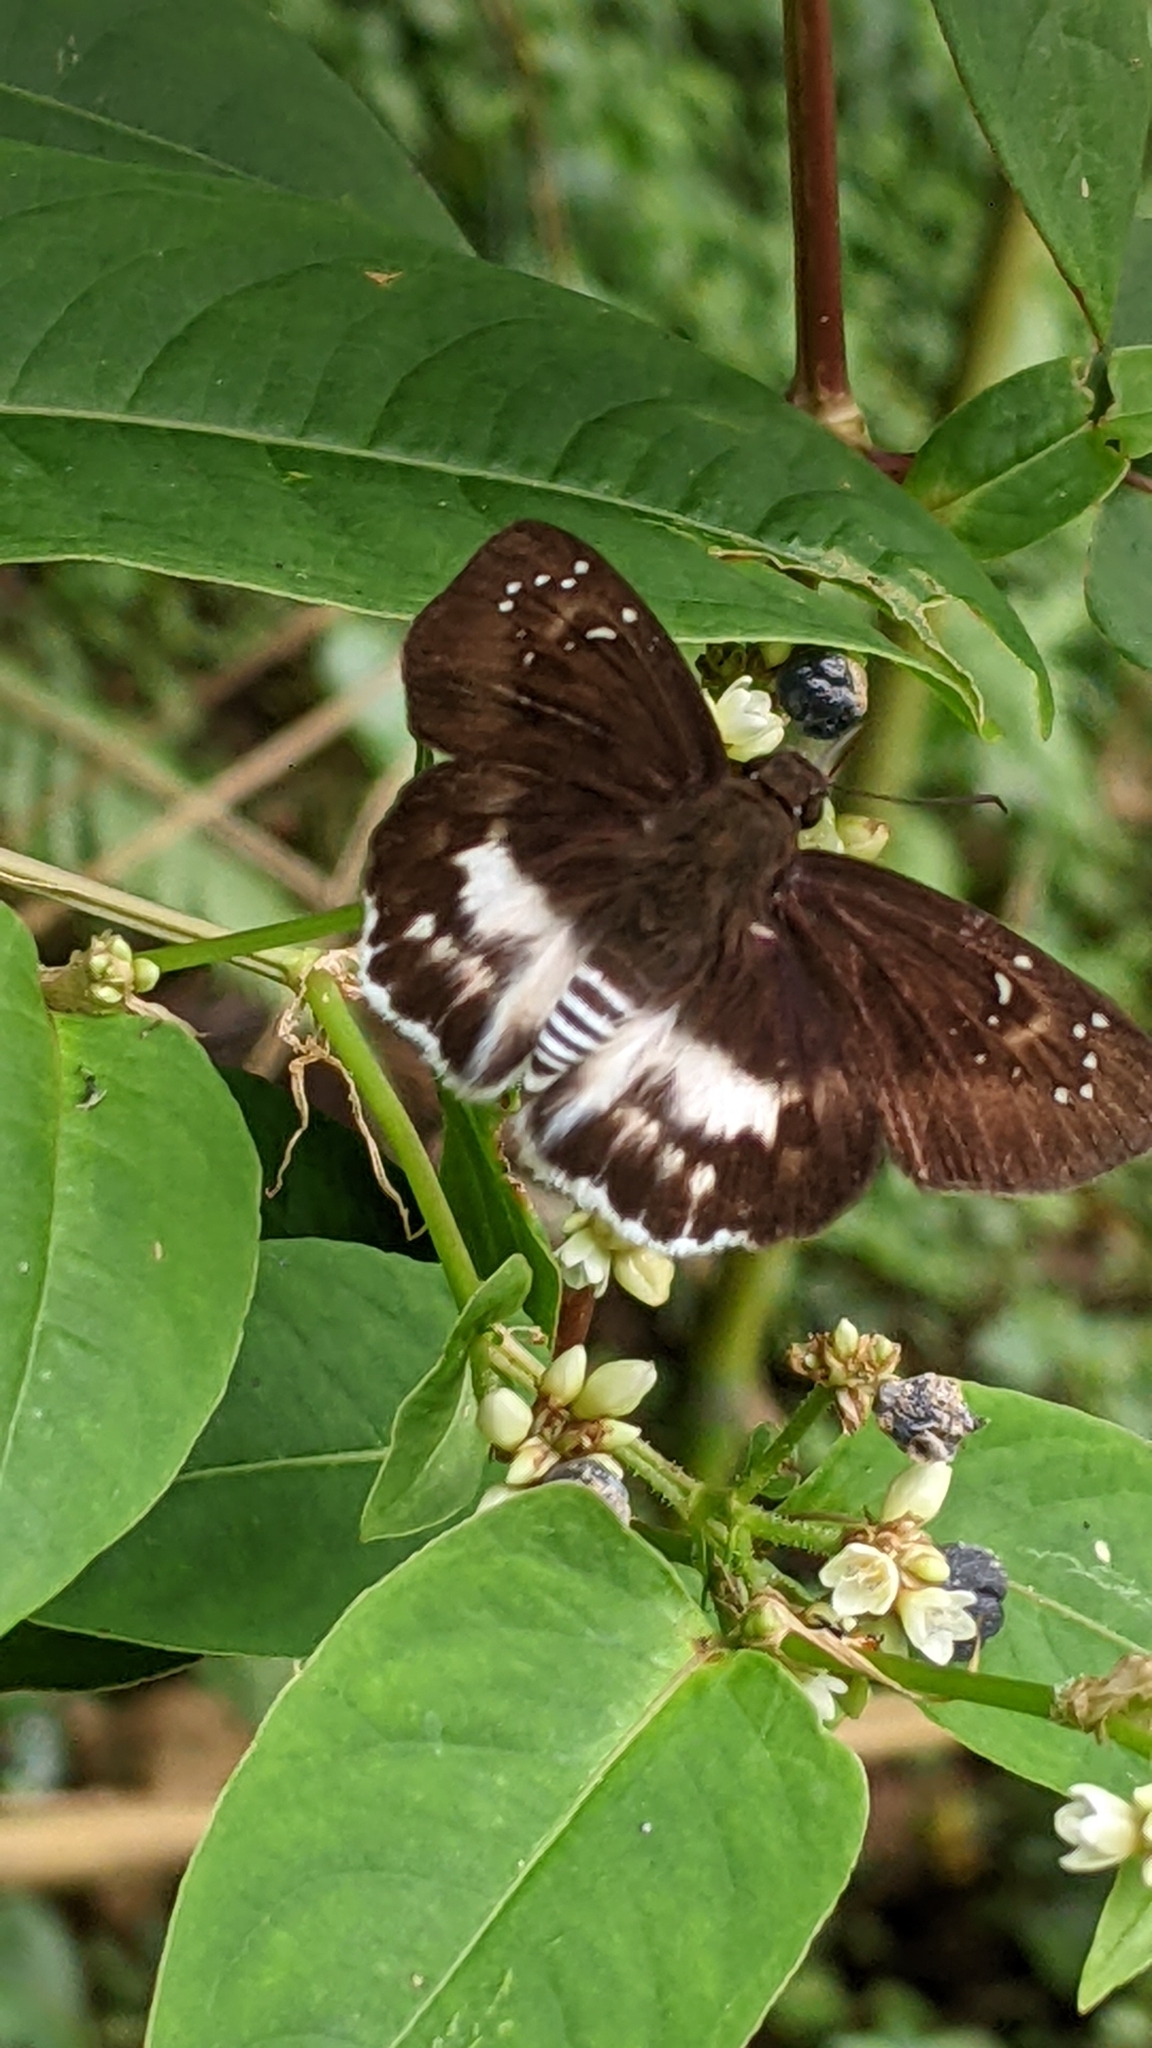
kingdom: Animalia
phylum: Arthropoda
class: Insecta
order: Lepidoptera
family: Hesperiidae
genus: Tagiades
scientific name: Tagiades cohaerens
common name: White-striped snow flat
